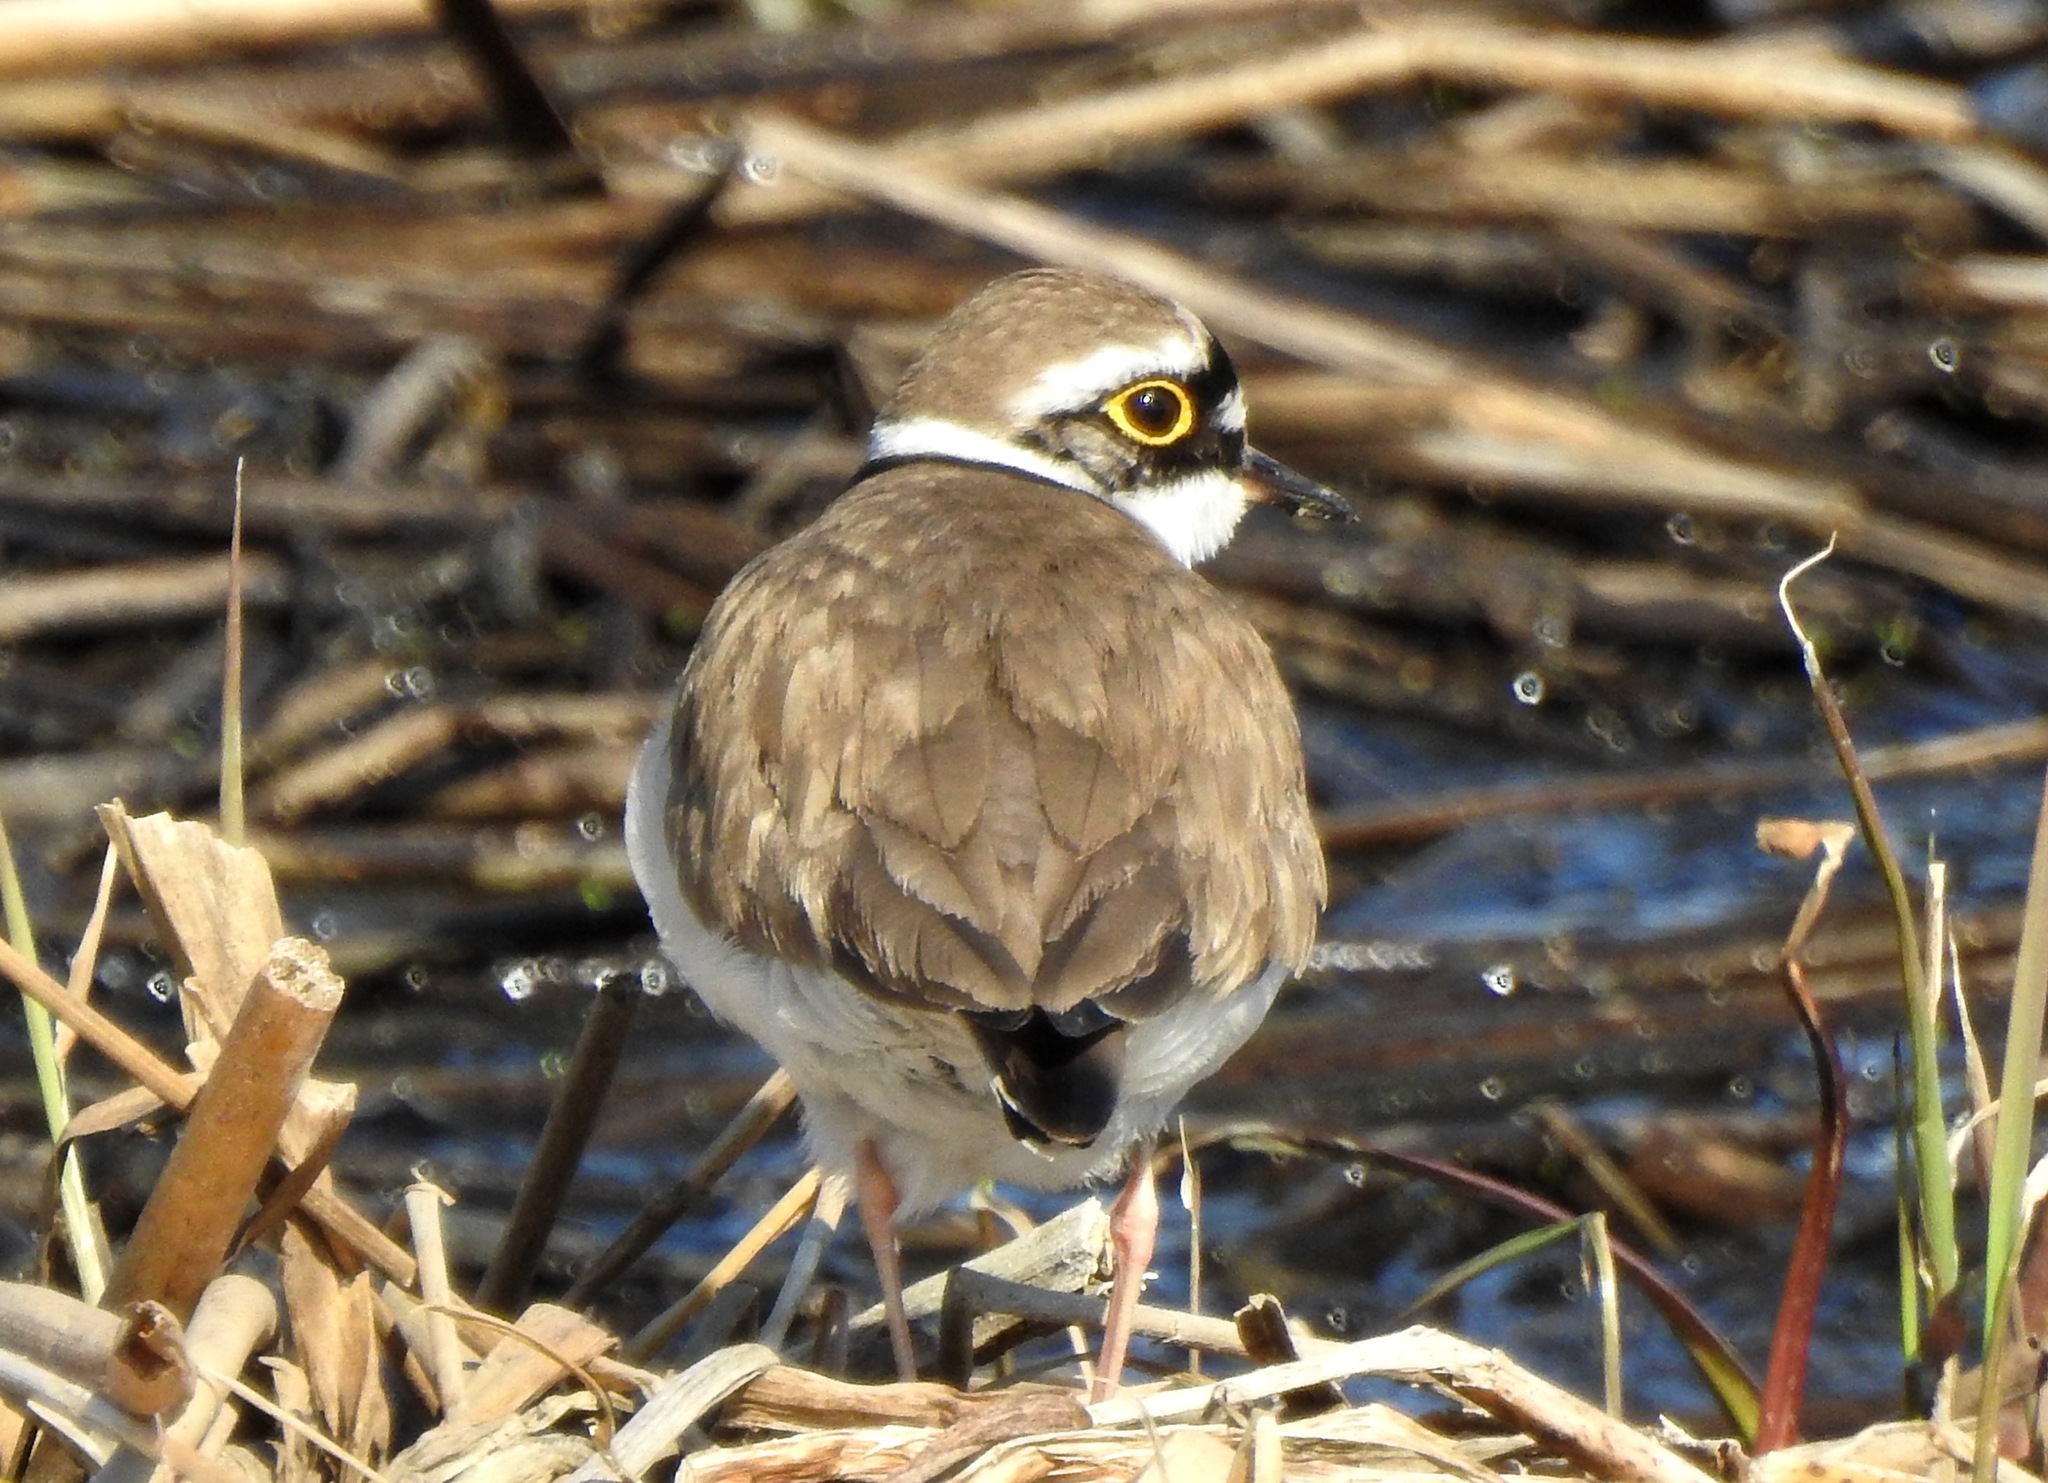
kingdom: Animalia
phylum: Chordata
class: Aves
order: Charadriiformes
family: Charadriidae
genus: Charadrius
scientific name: Charadrius dubius
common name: Little ringed plover
